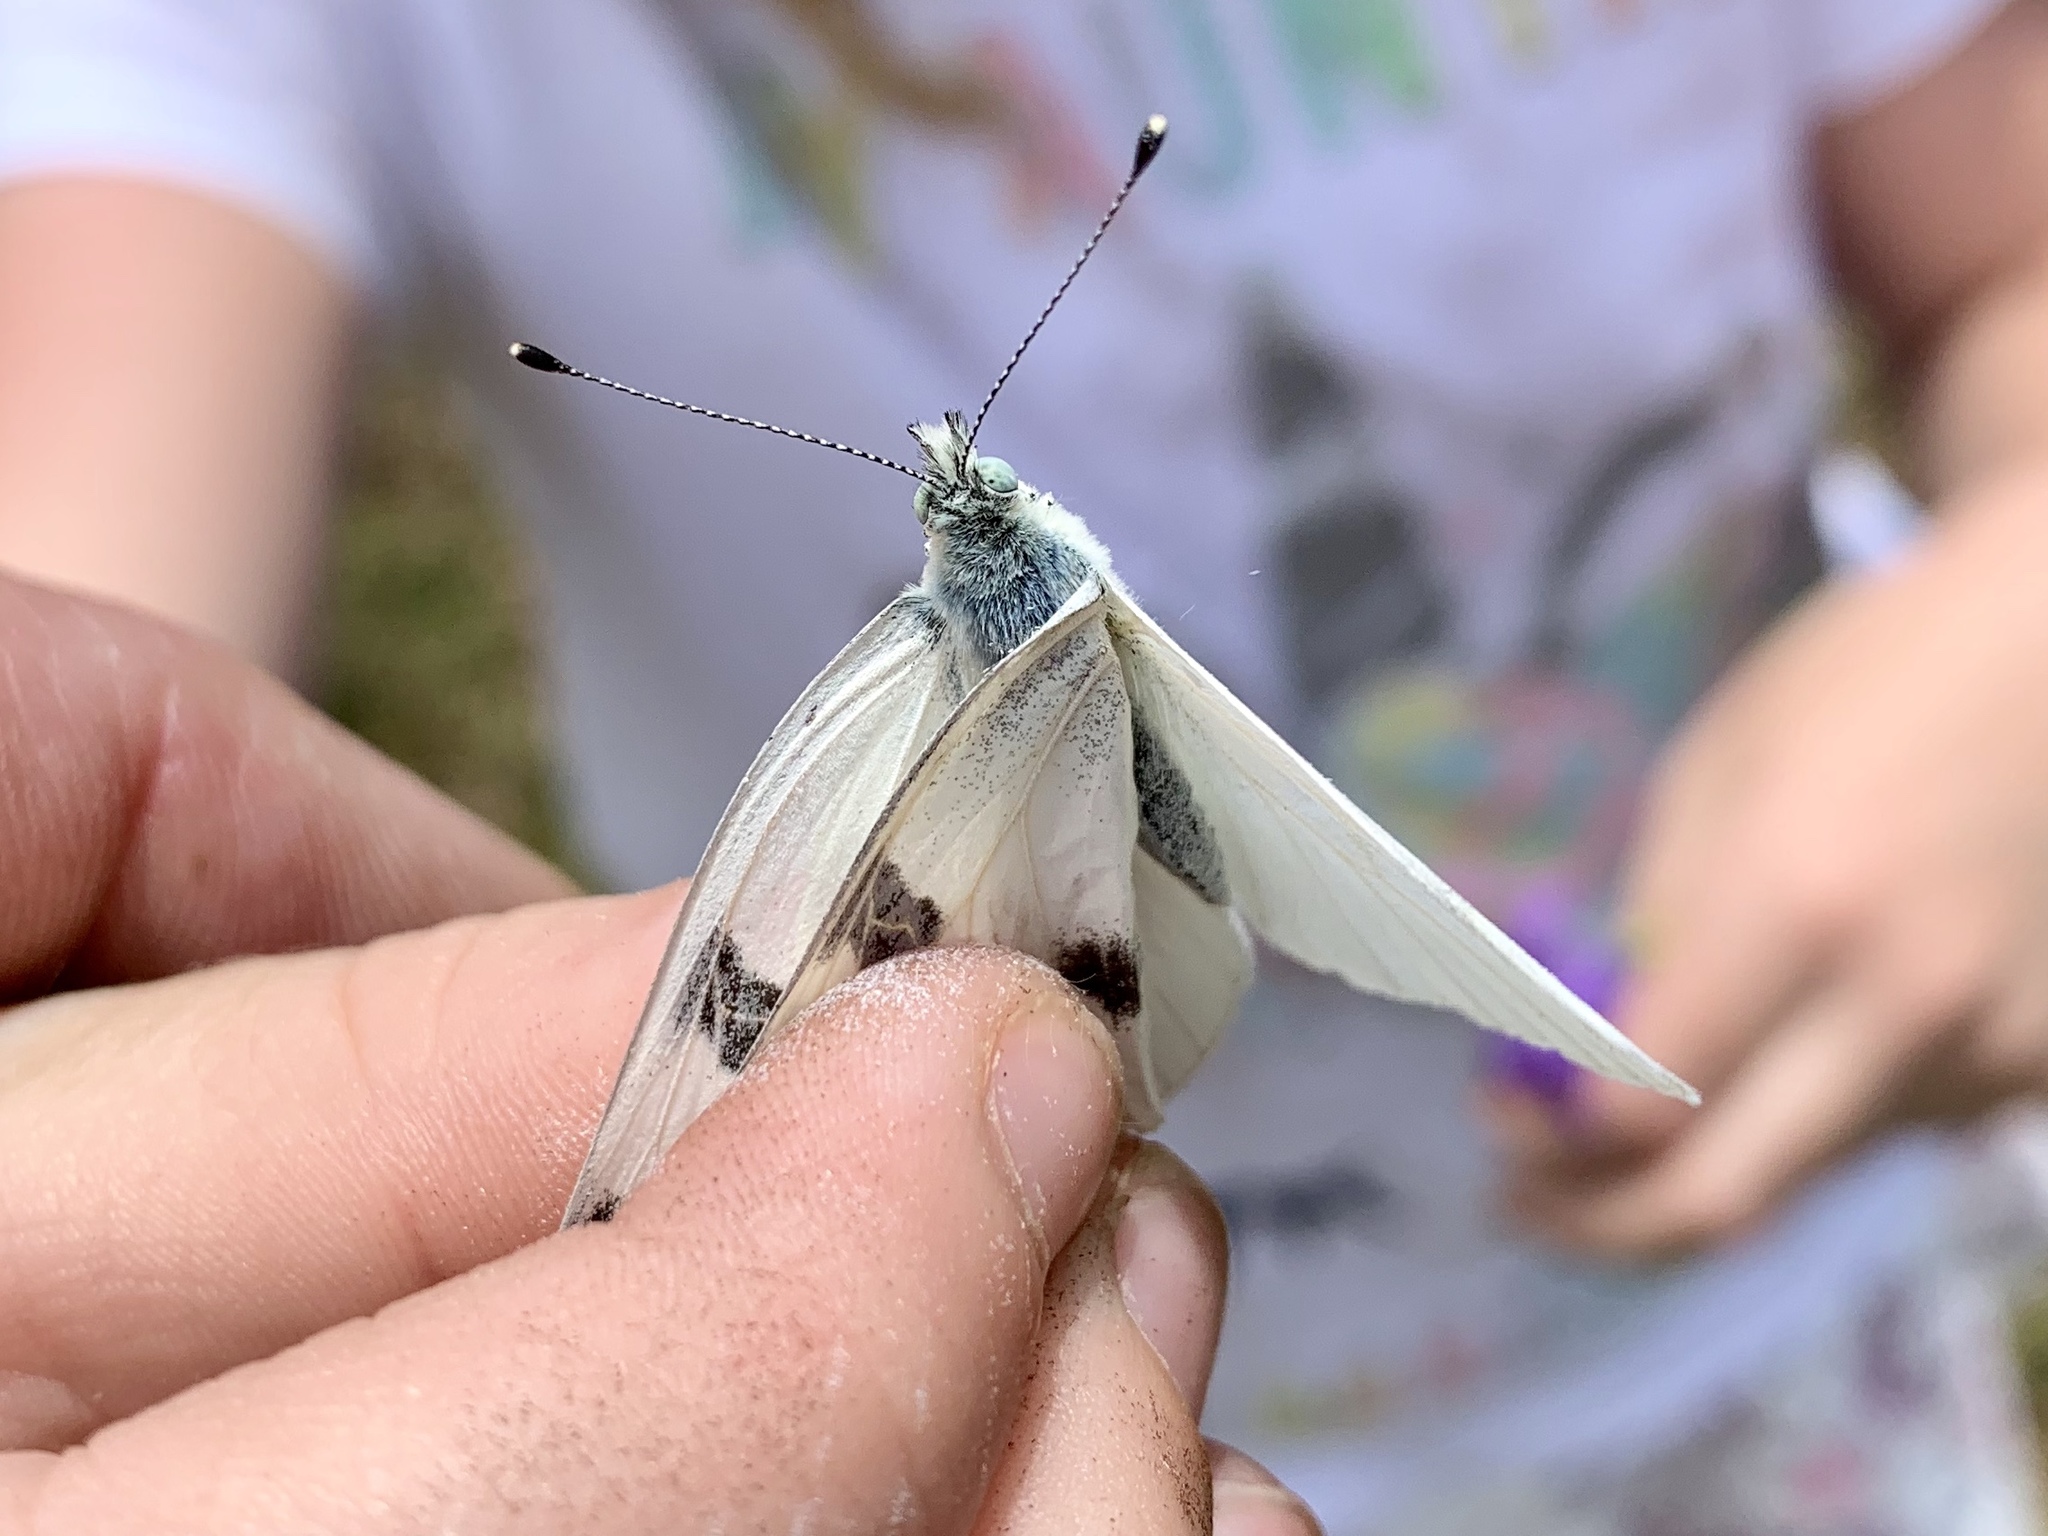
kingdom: Animalia
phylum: Arthropoda
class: Insecta
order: Lepidoptera
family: Pieridae
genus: Pontia
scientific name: Pontia protodice
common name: Checkered white
